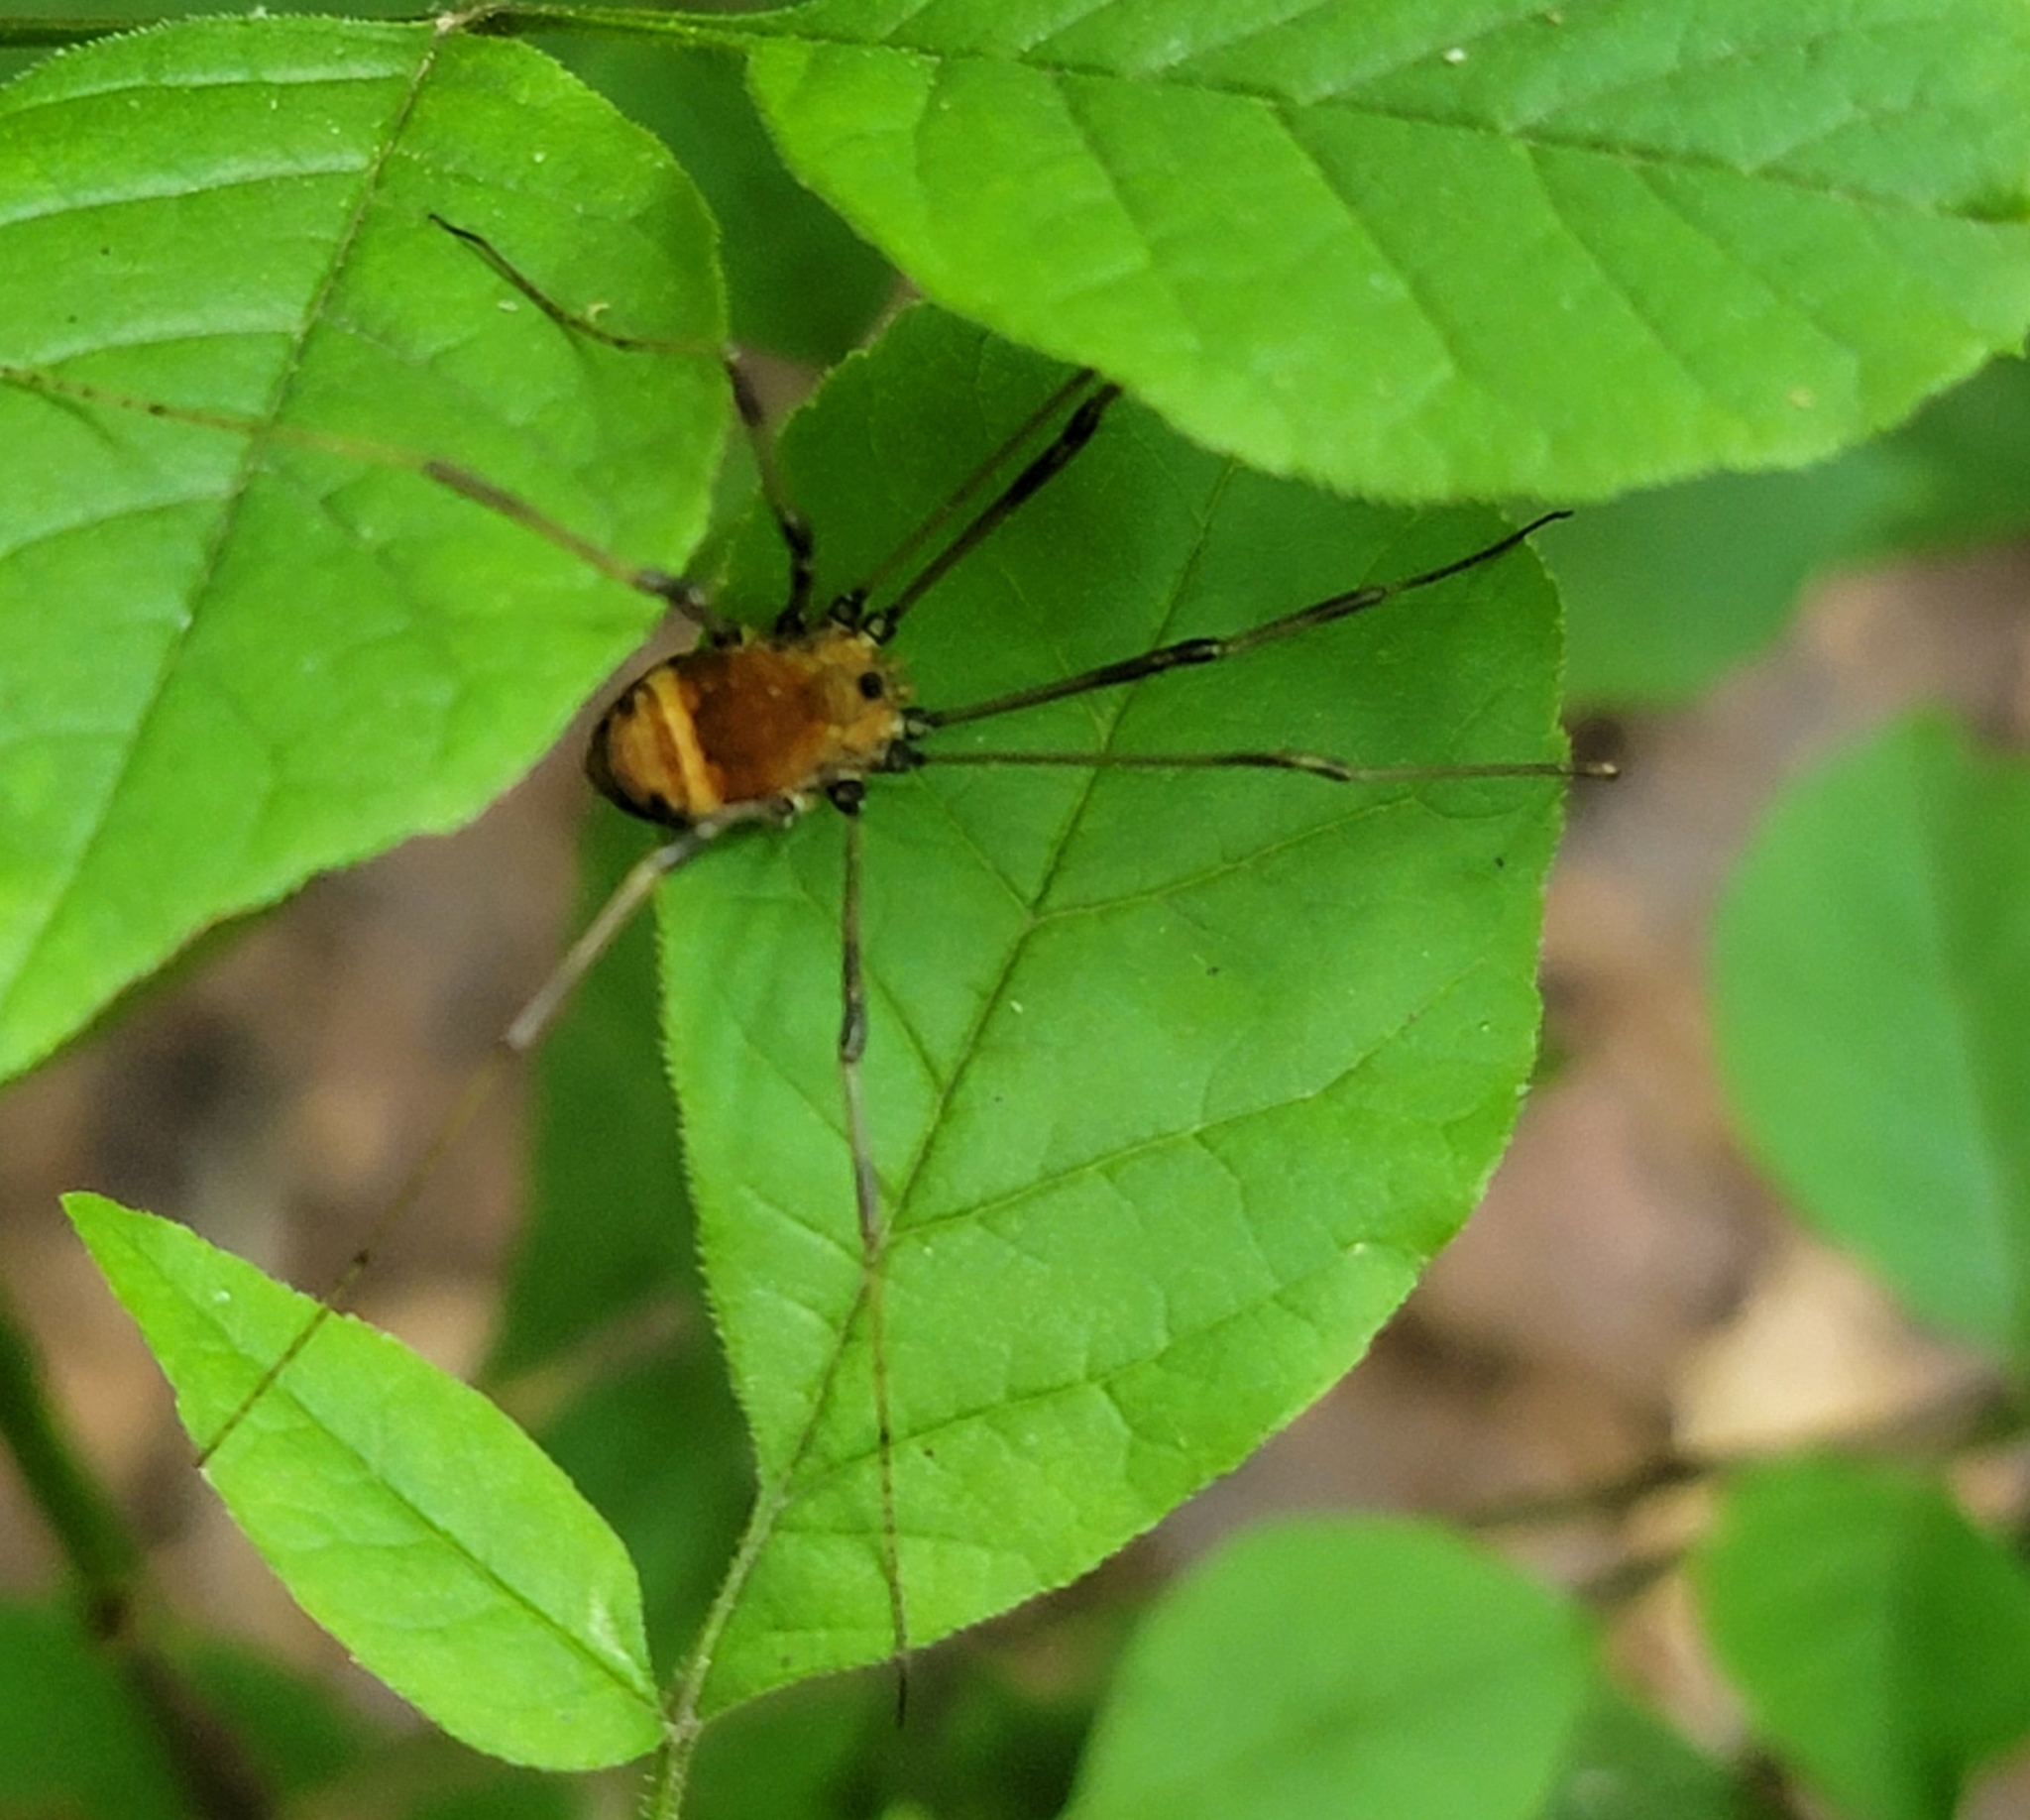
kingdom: Animalia
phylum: Arthropoda
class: Arachnida
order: Opiliones
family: Sclerosomatidae
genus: Leiobunum
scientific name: Leiobunum verrucosum
